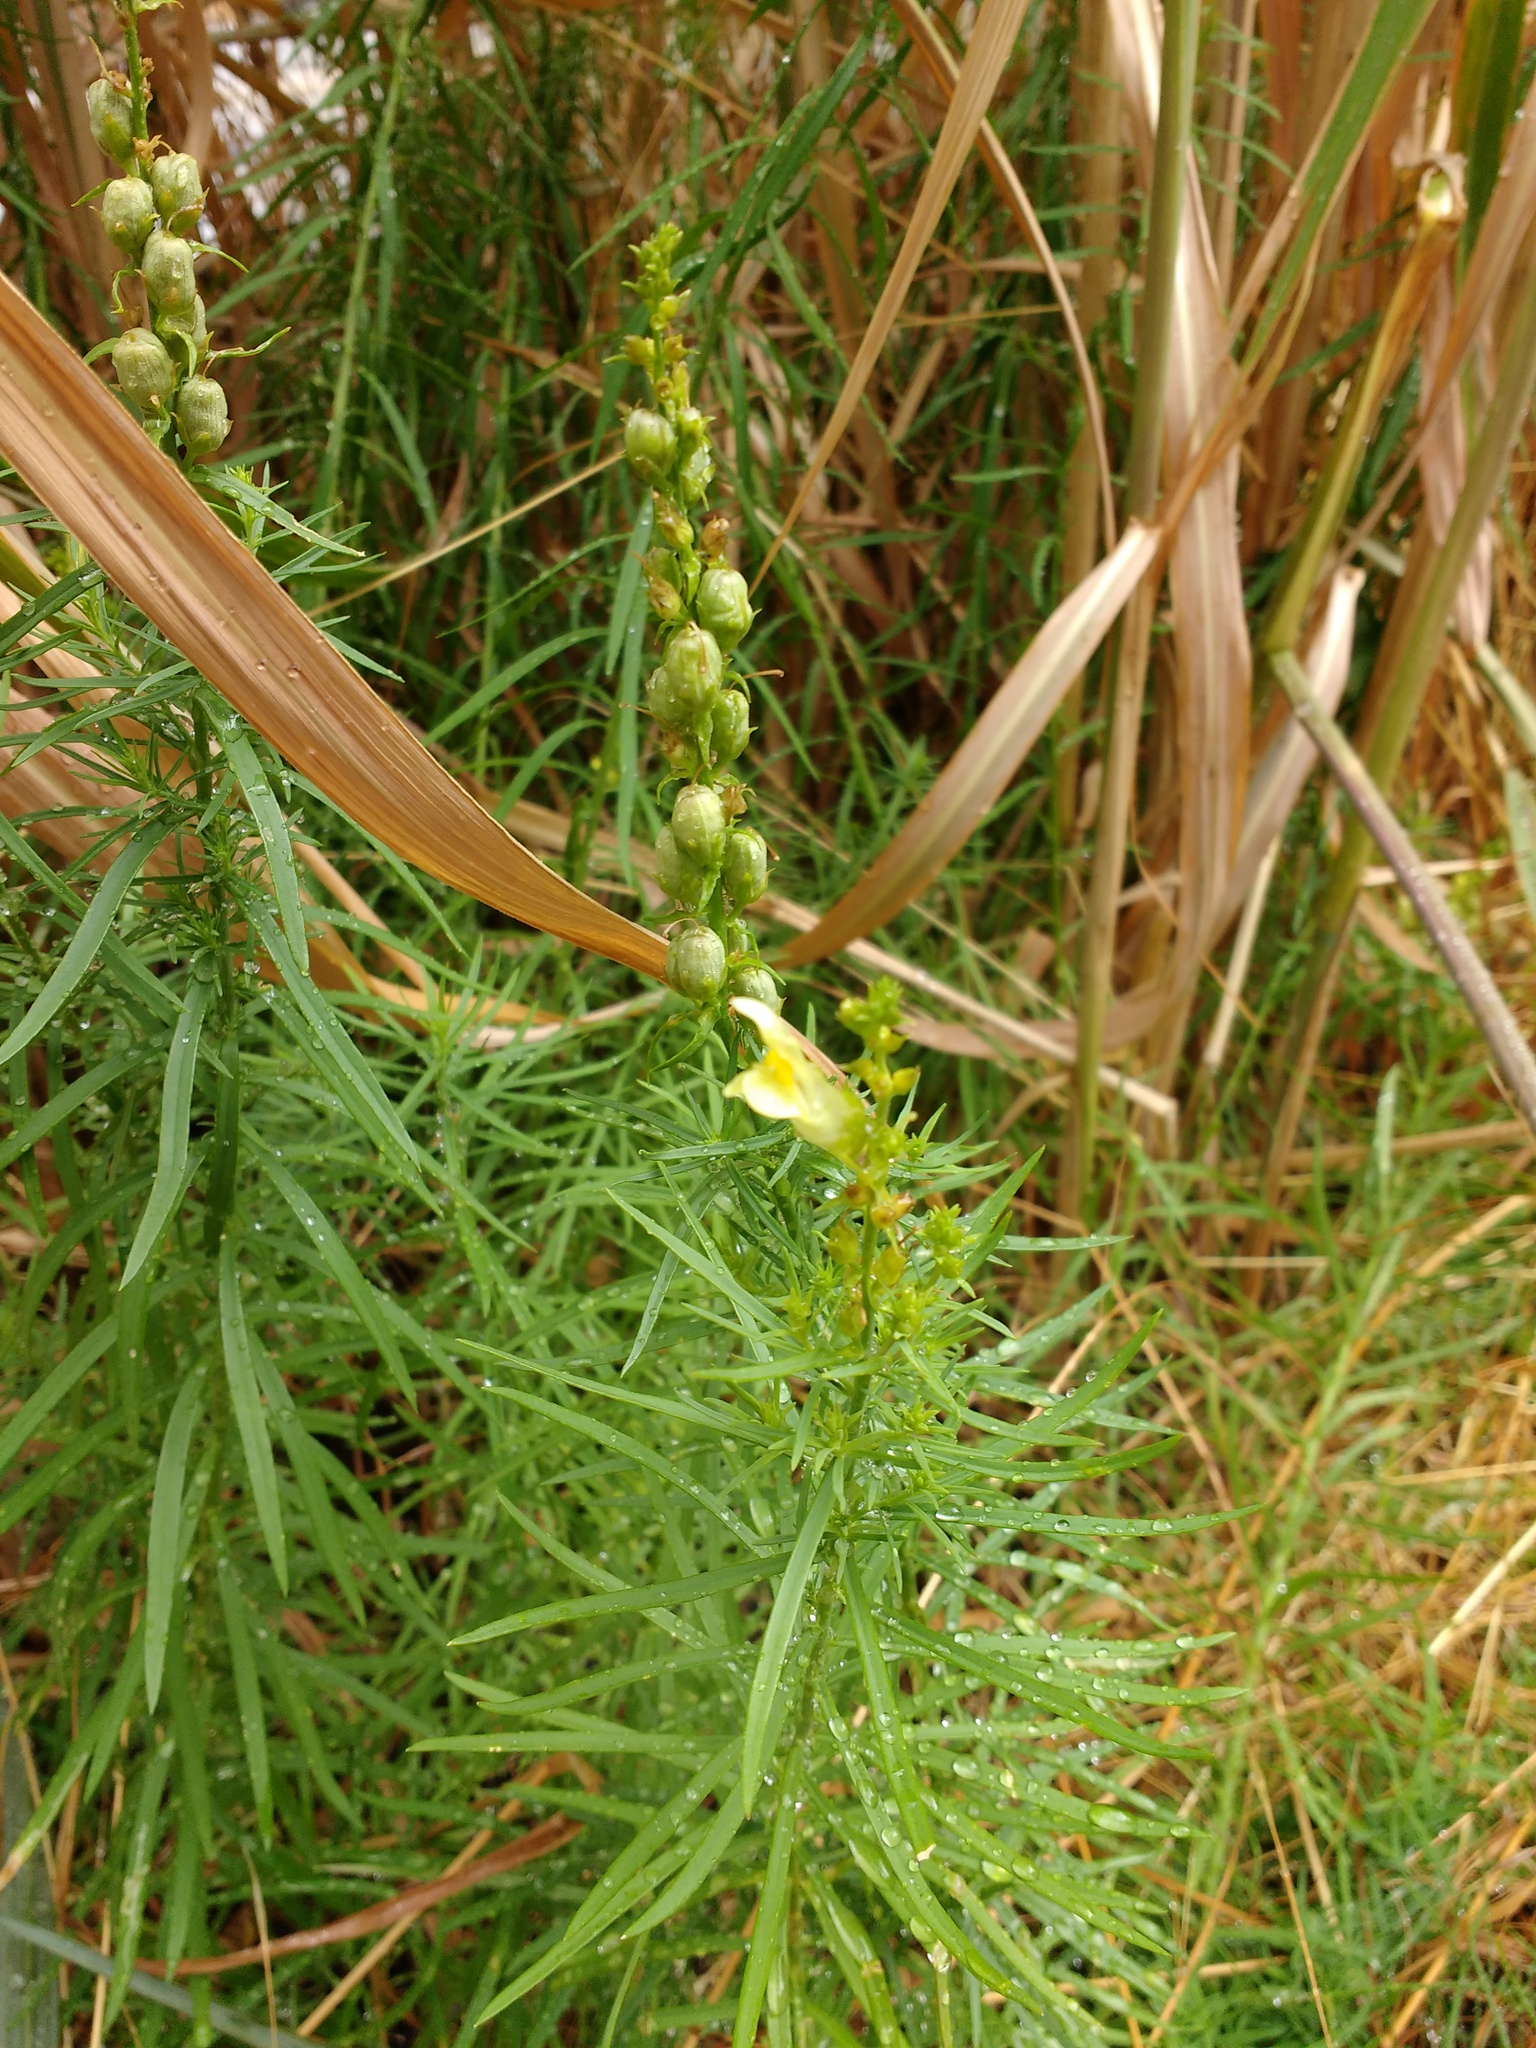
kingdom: Plantae
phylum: Tracheophyta
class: Magnoliopsida
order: Lamiales
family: Plantaginaceae
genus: Linaria
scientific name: Linaria vulgaris
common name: Butter and eggs
